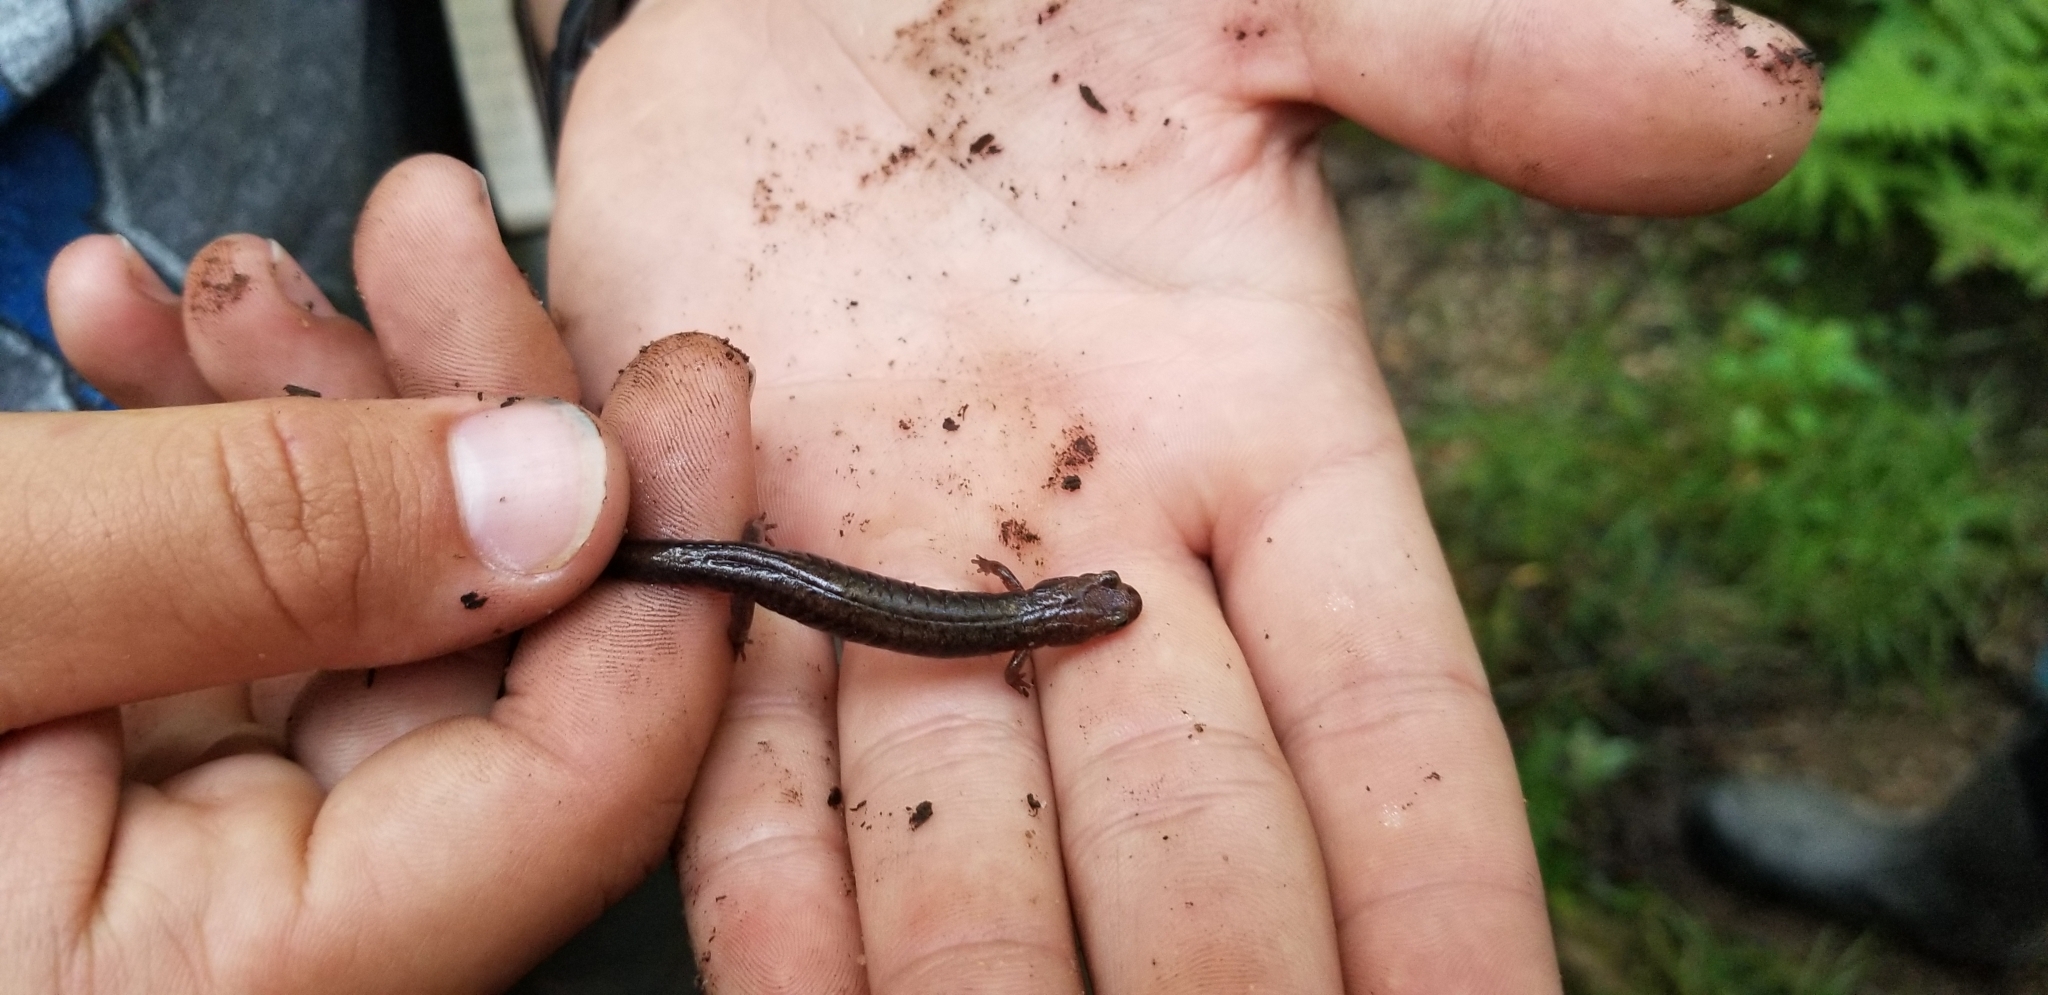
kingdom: Animalia
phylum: Chordata
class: Amphibia
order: Caudata
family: Plethodontidae
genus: Desmognathus
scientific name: Desmognathus ochrophaeus
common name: Allegheny mountain dusky salamander
